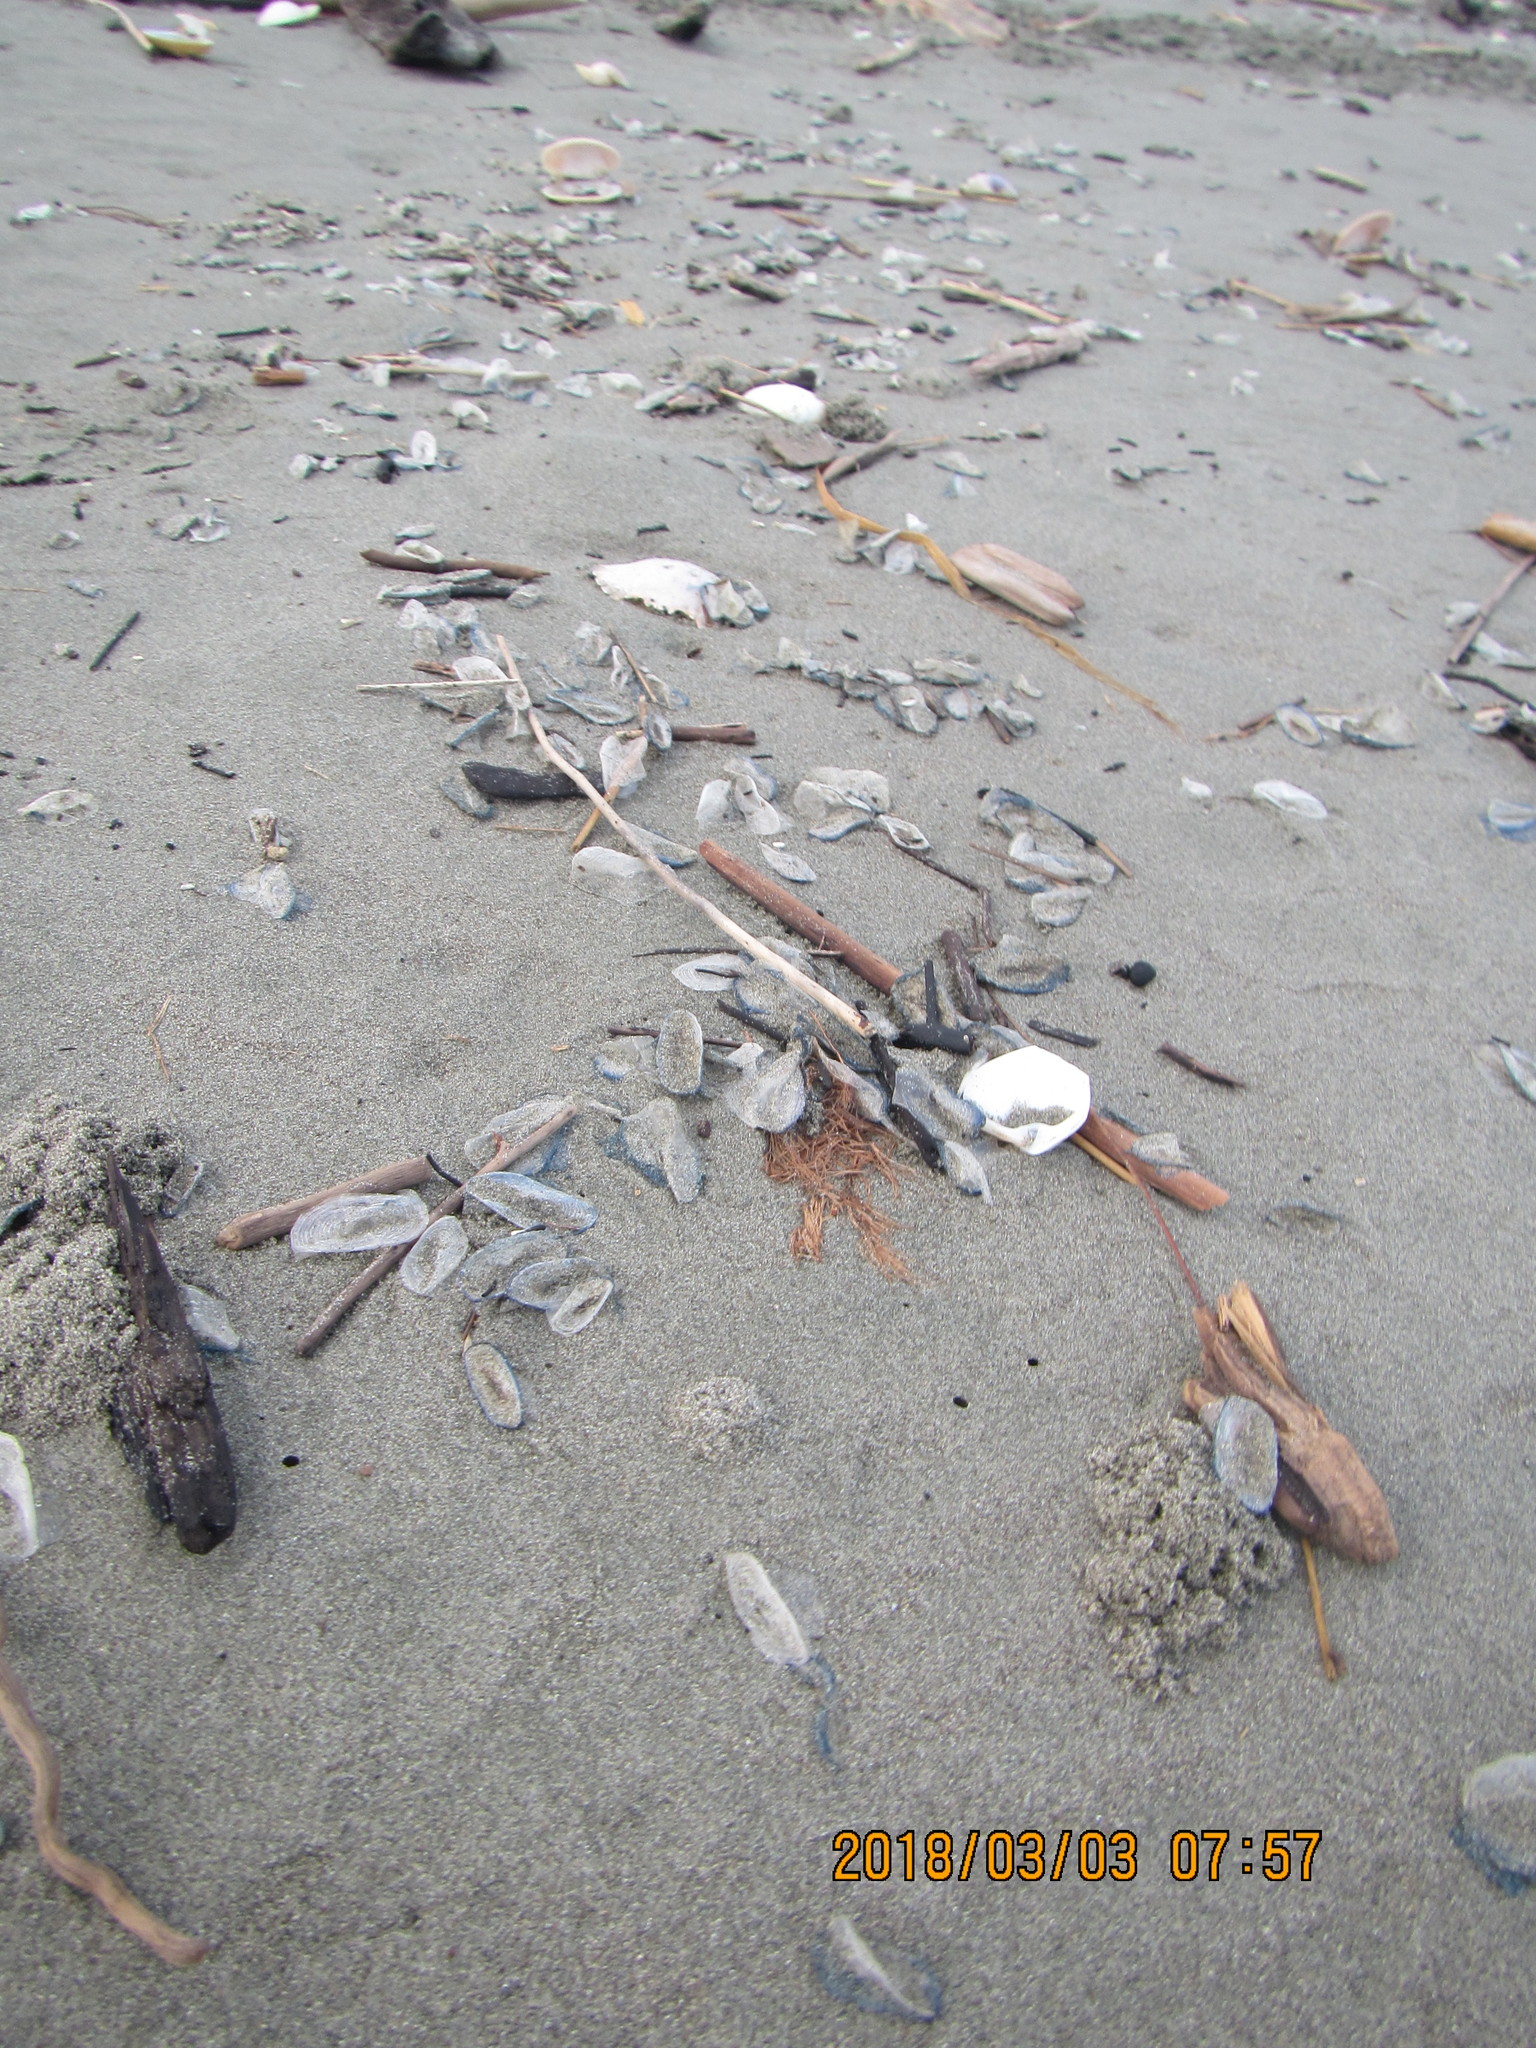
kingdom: Animalia
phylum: Cnidaria
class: Hydrozoa
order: Anthoathecata
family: Porpitidae
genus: Velella
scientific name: Velella velella
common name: By-the-wind-sailor
